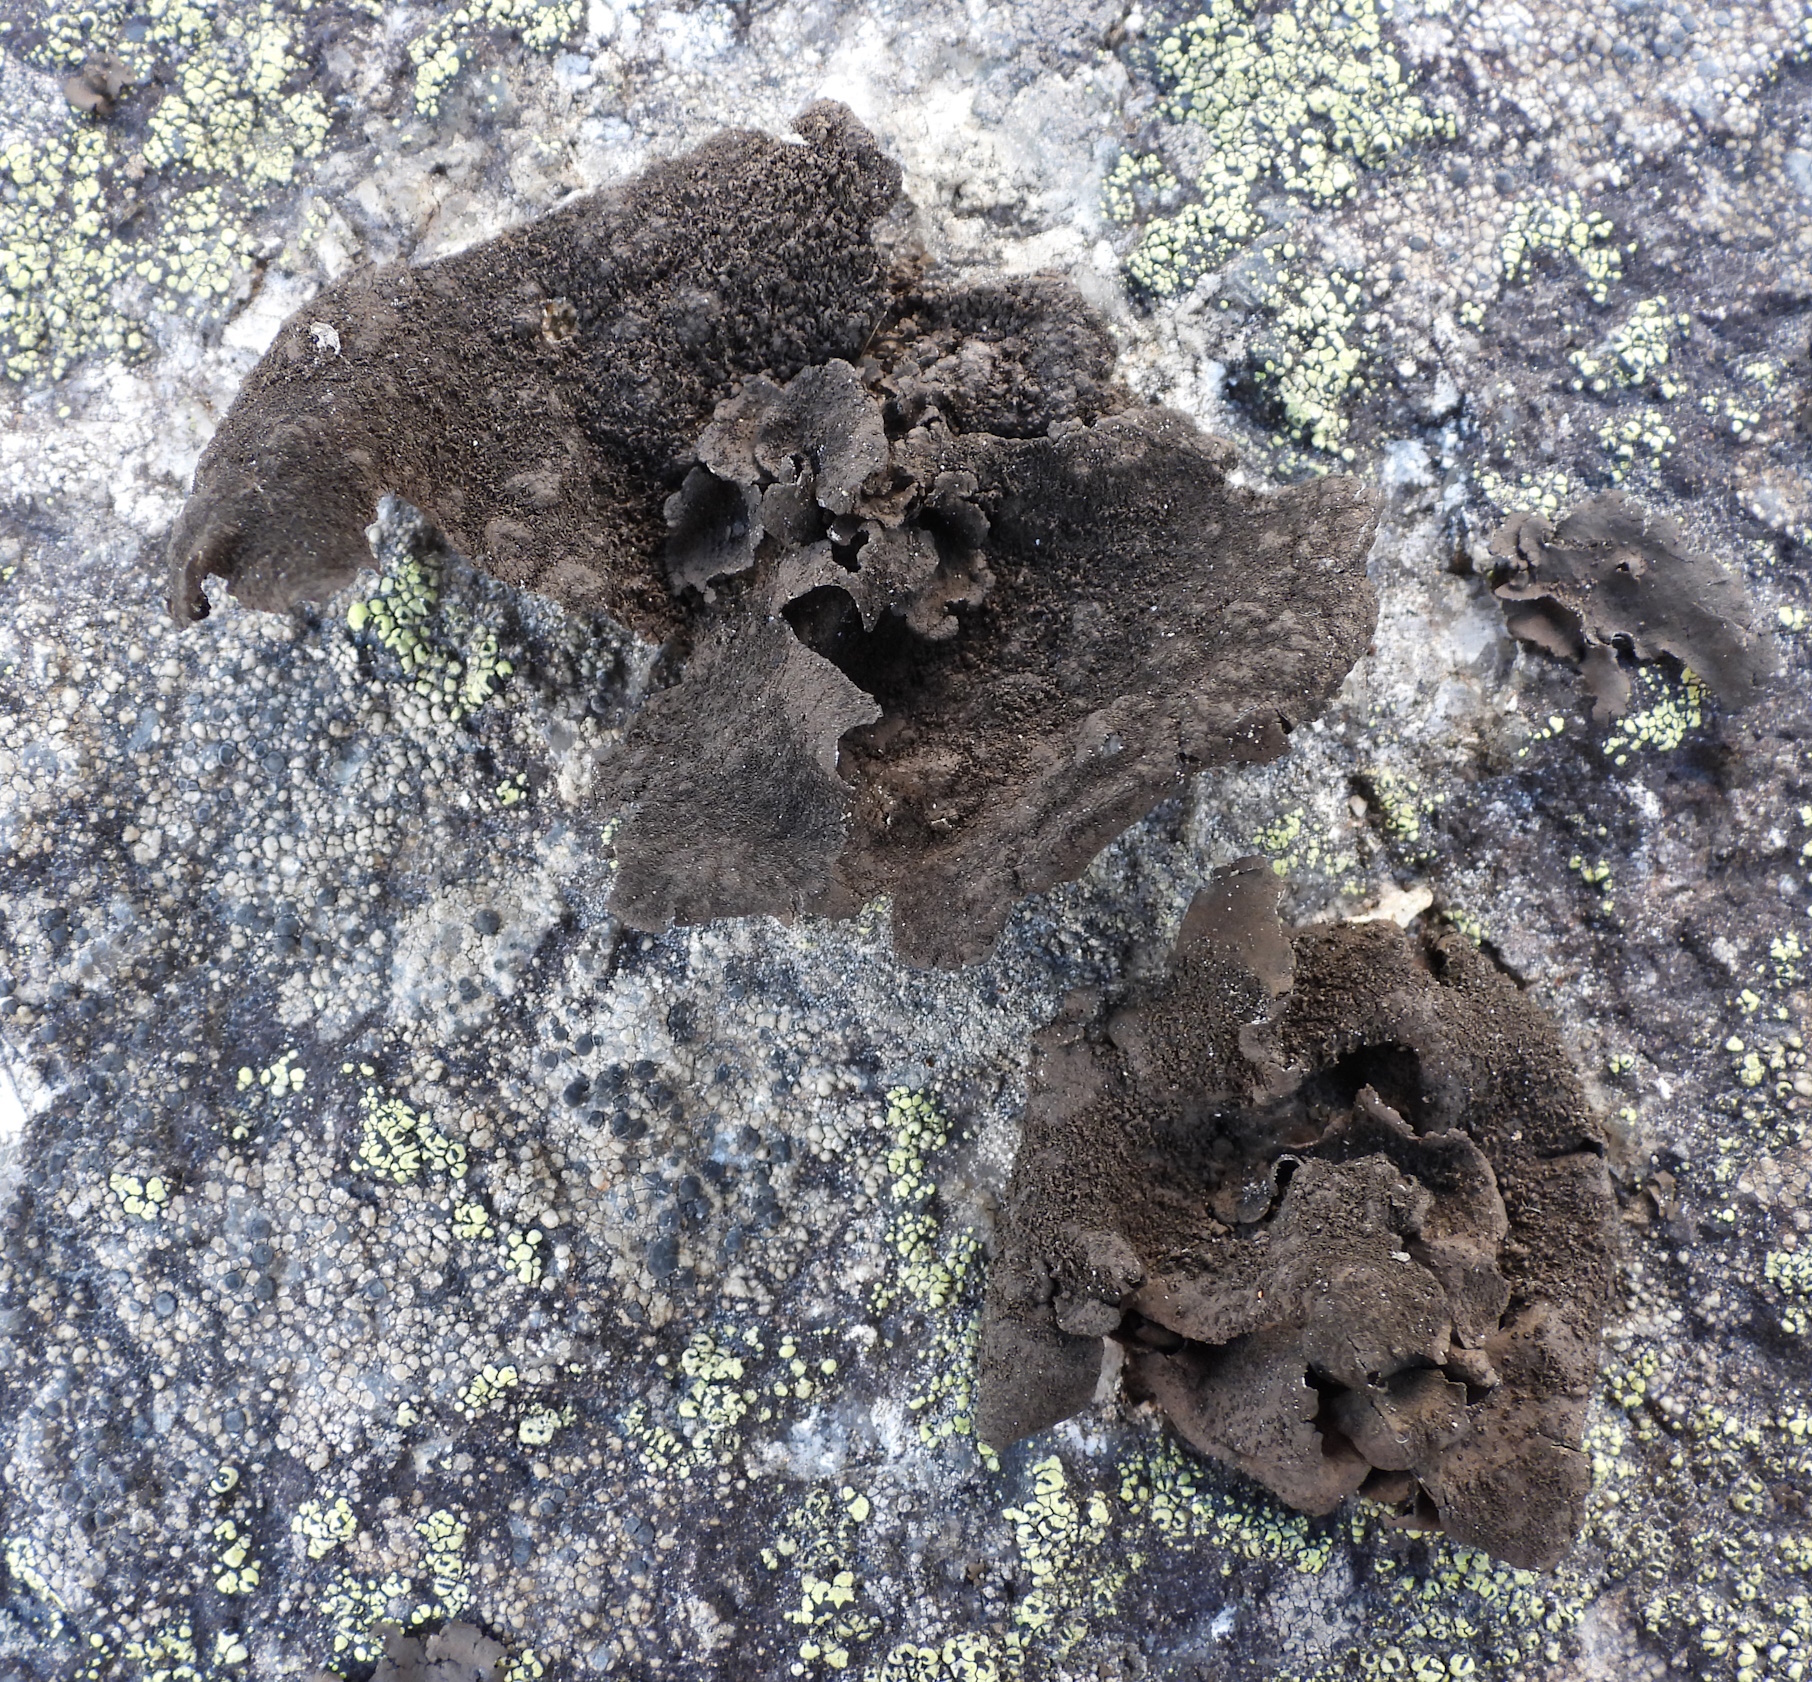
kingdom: Fungi
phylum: Ascomycota
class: Lecanoromycetes
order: Umbilicariales
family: Umbilicariaceae
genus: Umbilicaria
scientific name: Umbilicaria deusta
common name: Peppered rock tripe
